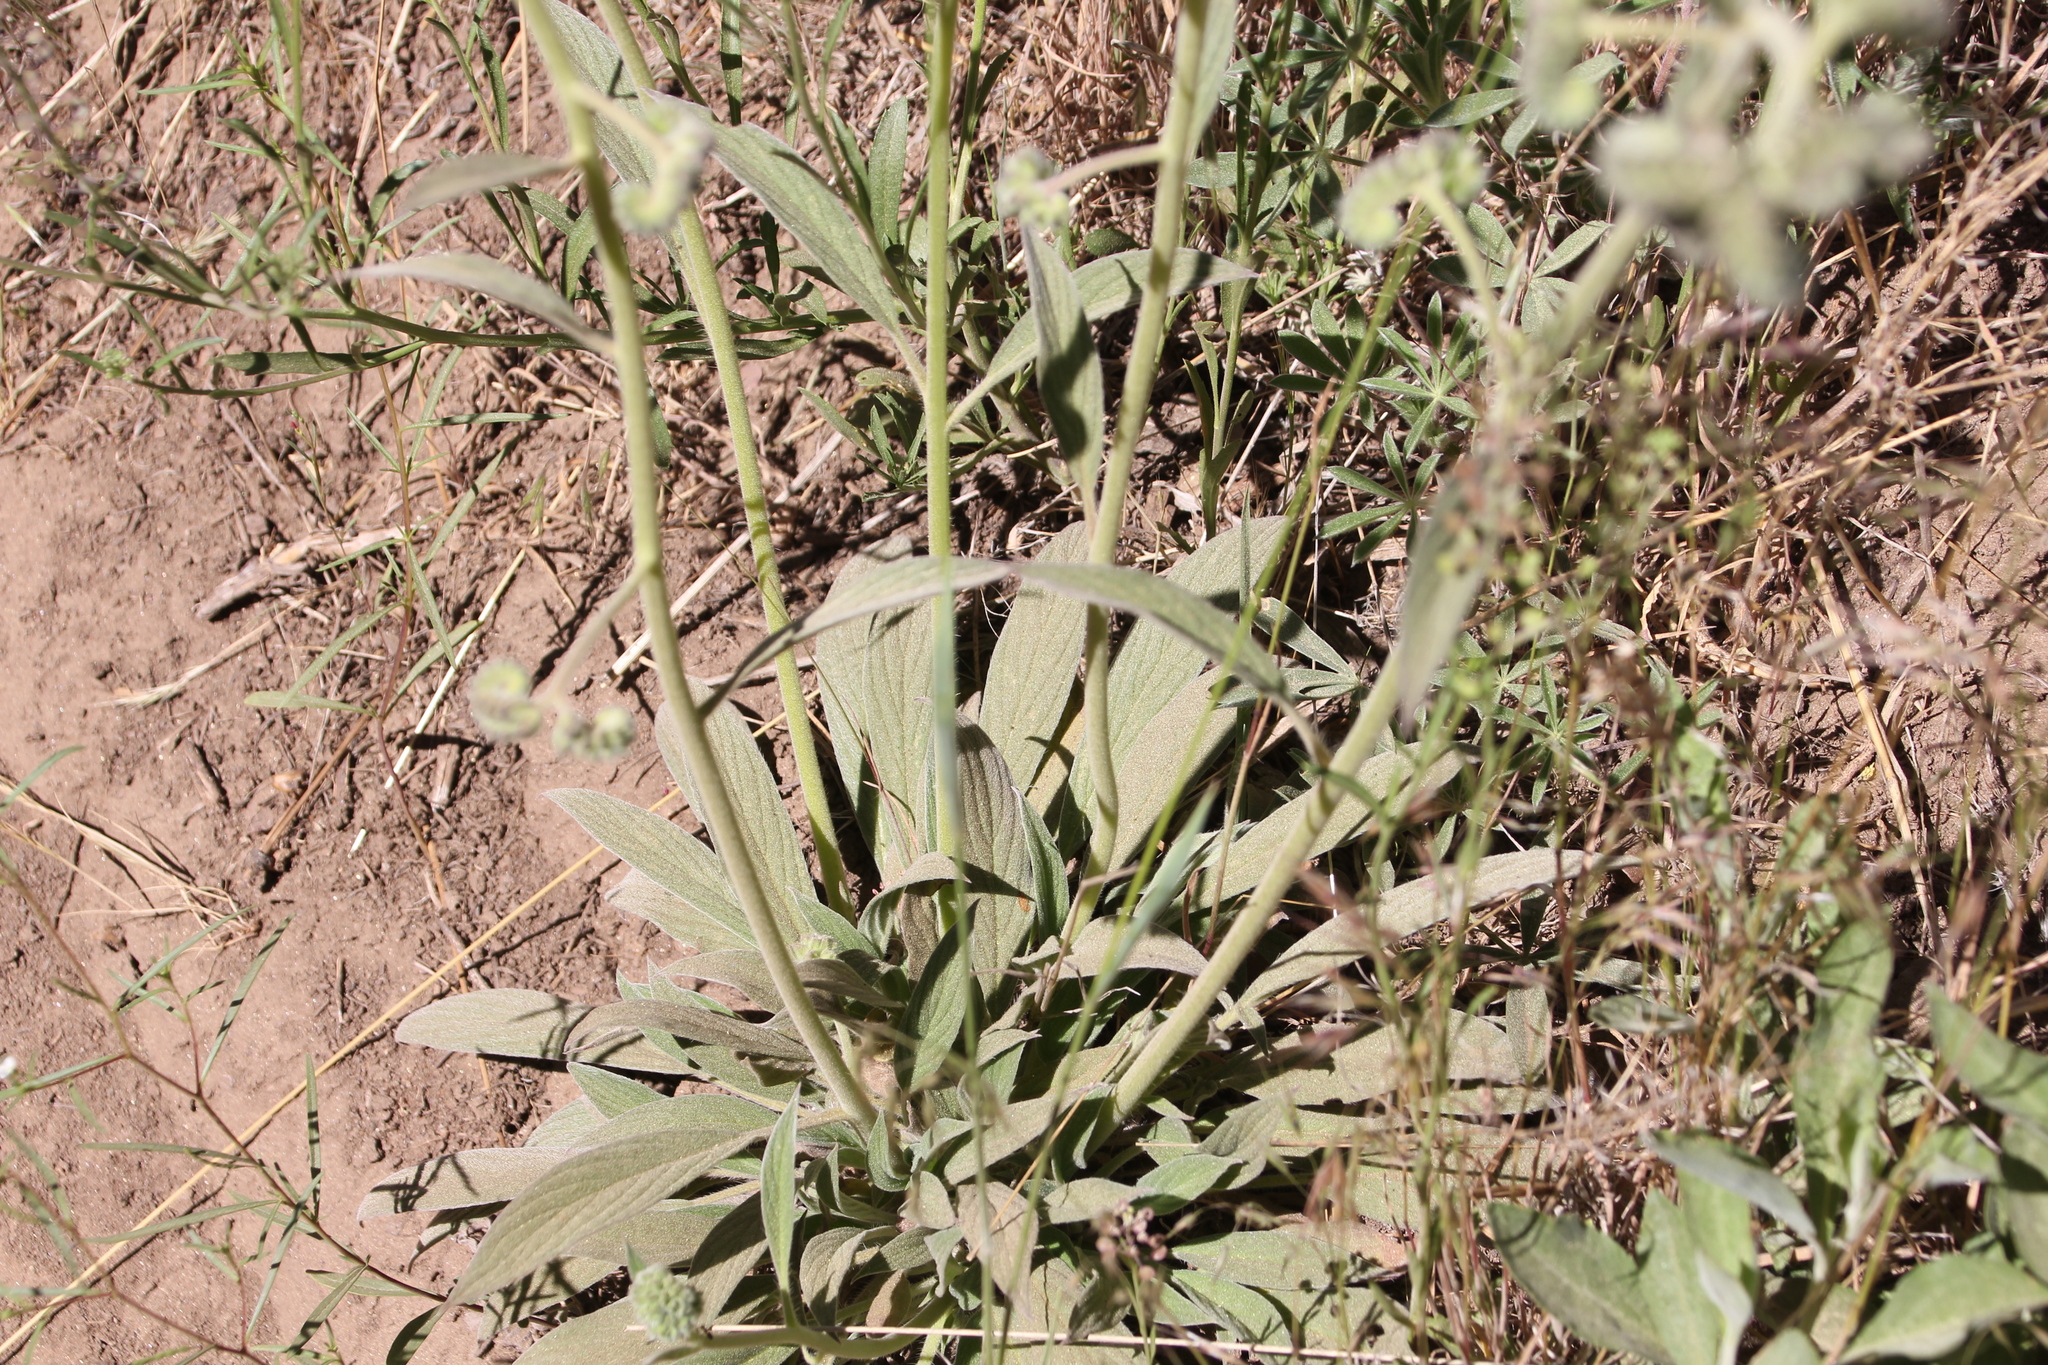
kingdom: Plantae
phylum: Tracheophyta
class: Magnoliopsida
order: Boraginales
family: Hydrophyllaceae
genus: Phacelia
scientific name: Phacelia imbricata
